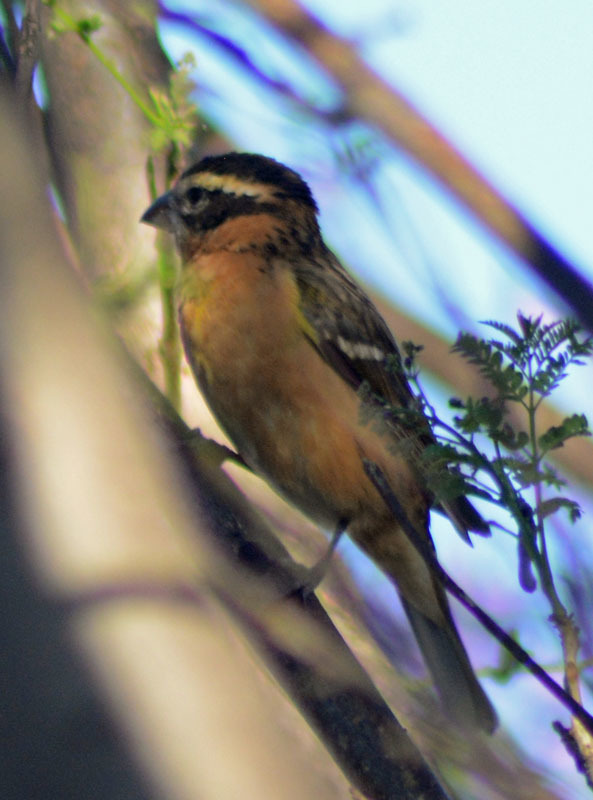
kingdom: Animalia
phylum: Chordata
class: Aves
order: Passeriformes
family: Cardinalidae
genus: Pheucticus
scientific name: Pheucticus melanocephalus
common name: Black-headed grosbeak
